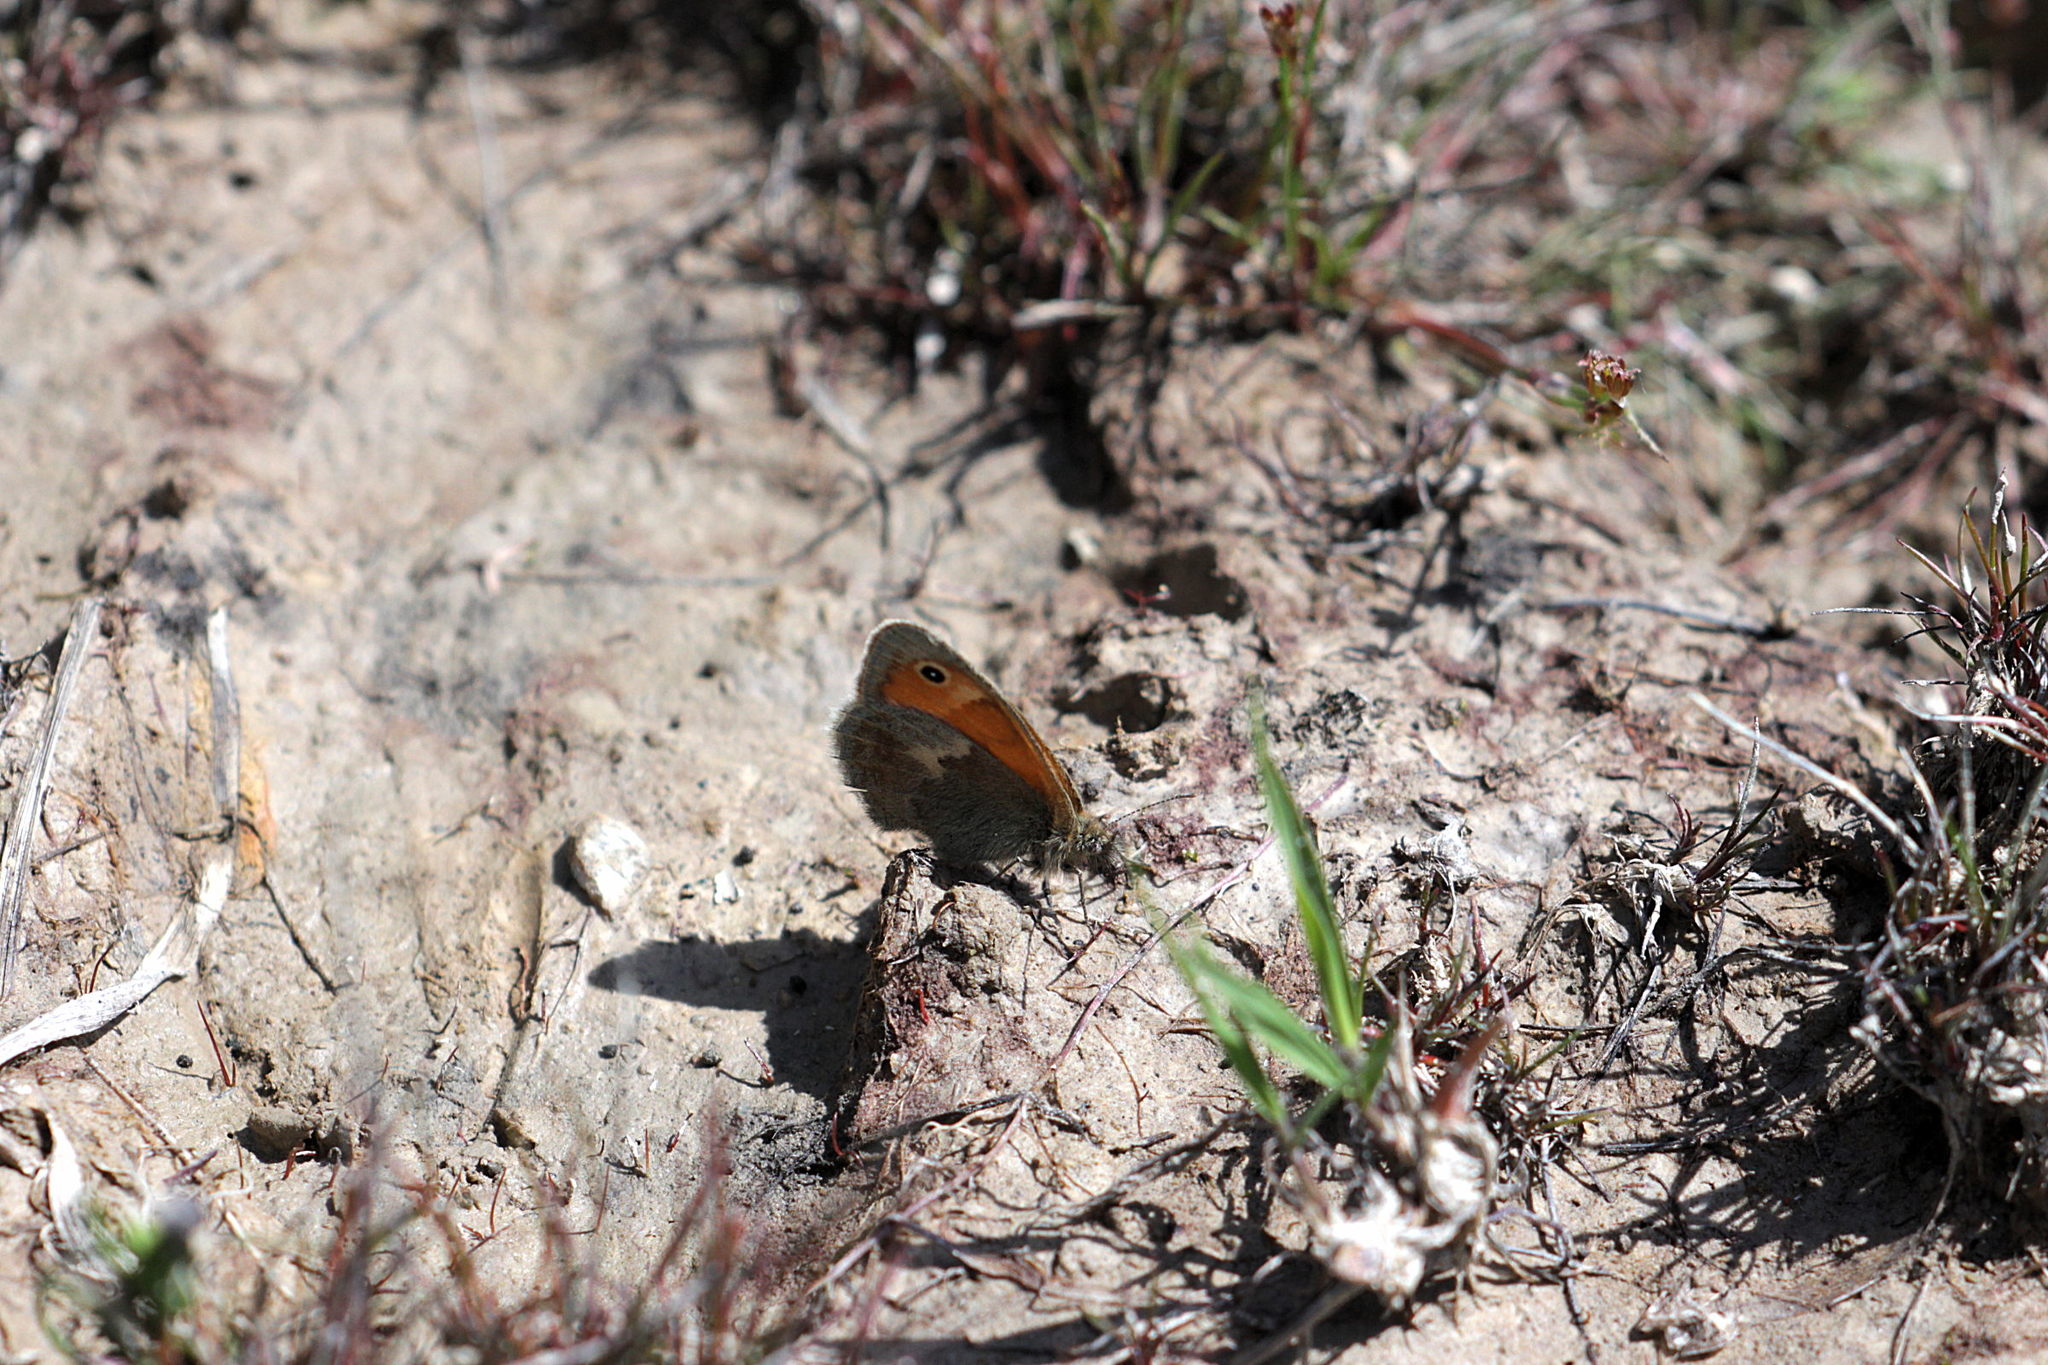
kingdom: Animalia
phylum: Arthropoda
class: Insecta
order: Lepidoptera
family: Nymphalidae
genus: Coenonympha
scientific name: Coenonympha pamphilus
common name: Small heath
